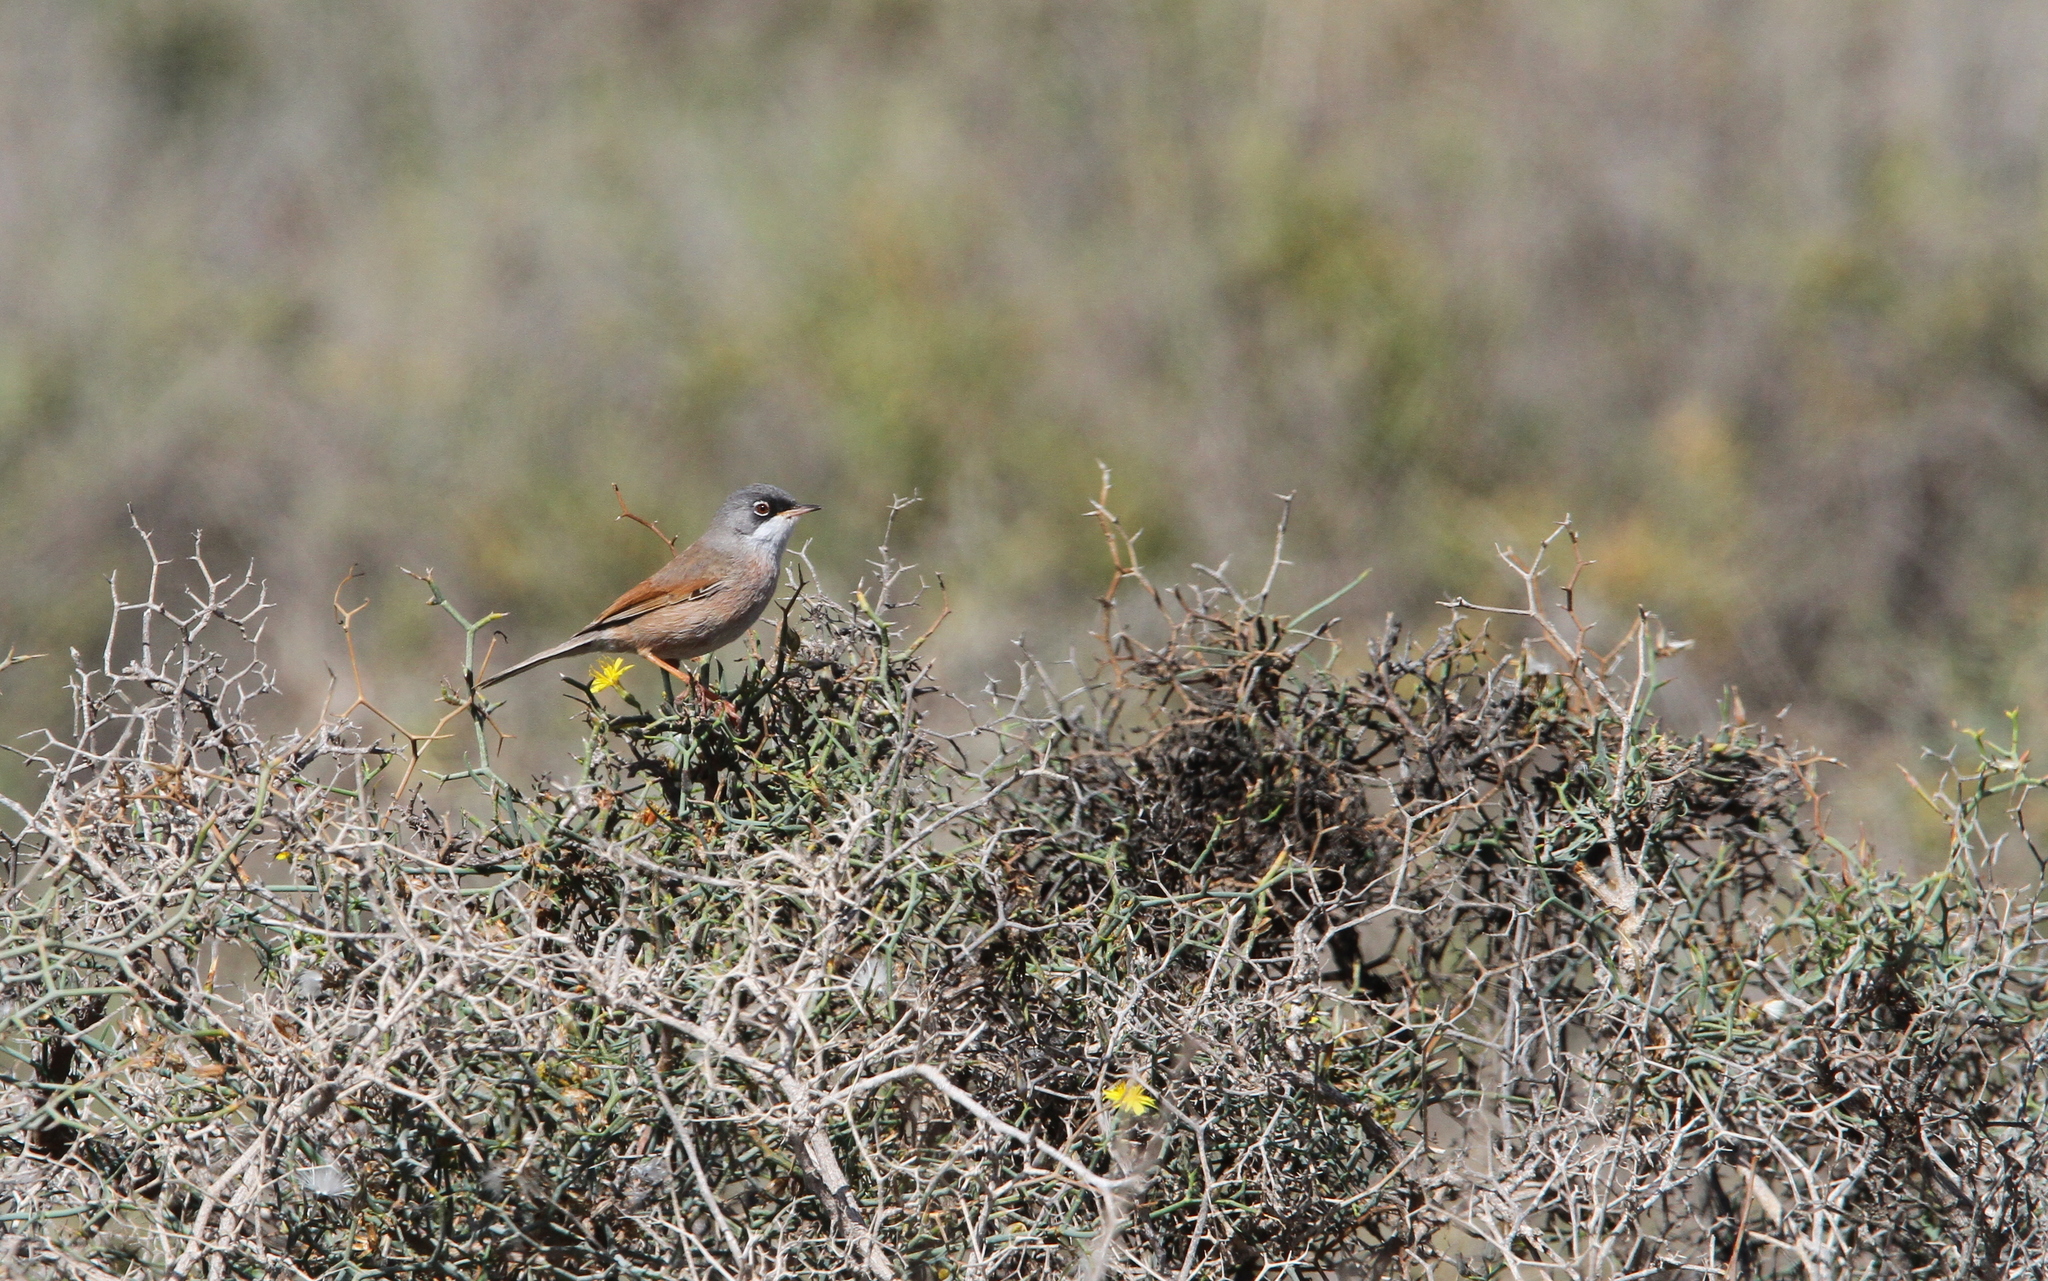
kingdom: Animalia
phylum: Chordata
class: Aves
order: Passeriformes
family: Sylviidae
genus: Sylvia
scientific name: Sylvia conspicillata
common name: Spectacled warbler
